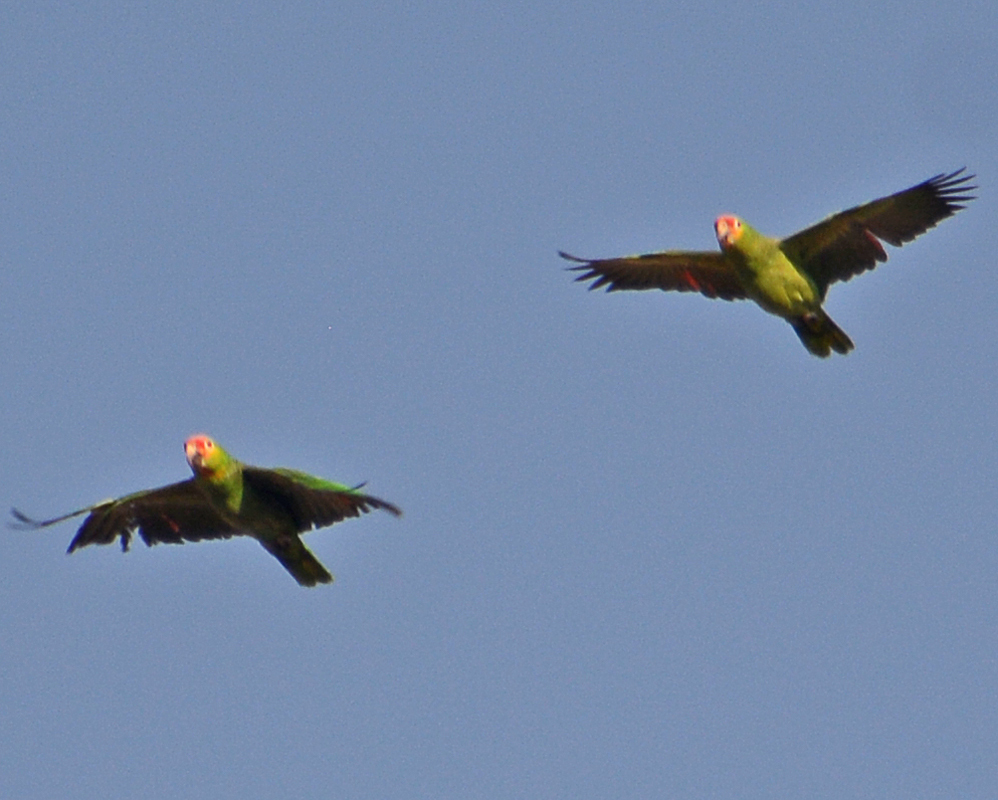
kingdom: Animalia
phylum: Chordata
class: Aves
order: Psittaciformes
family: Psittacidae
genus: Amazona
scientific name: Amazona autumnalis
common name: Red-lored amazon
